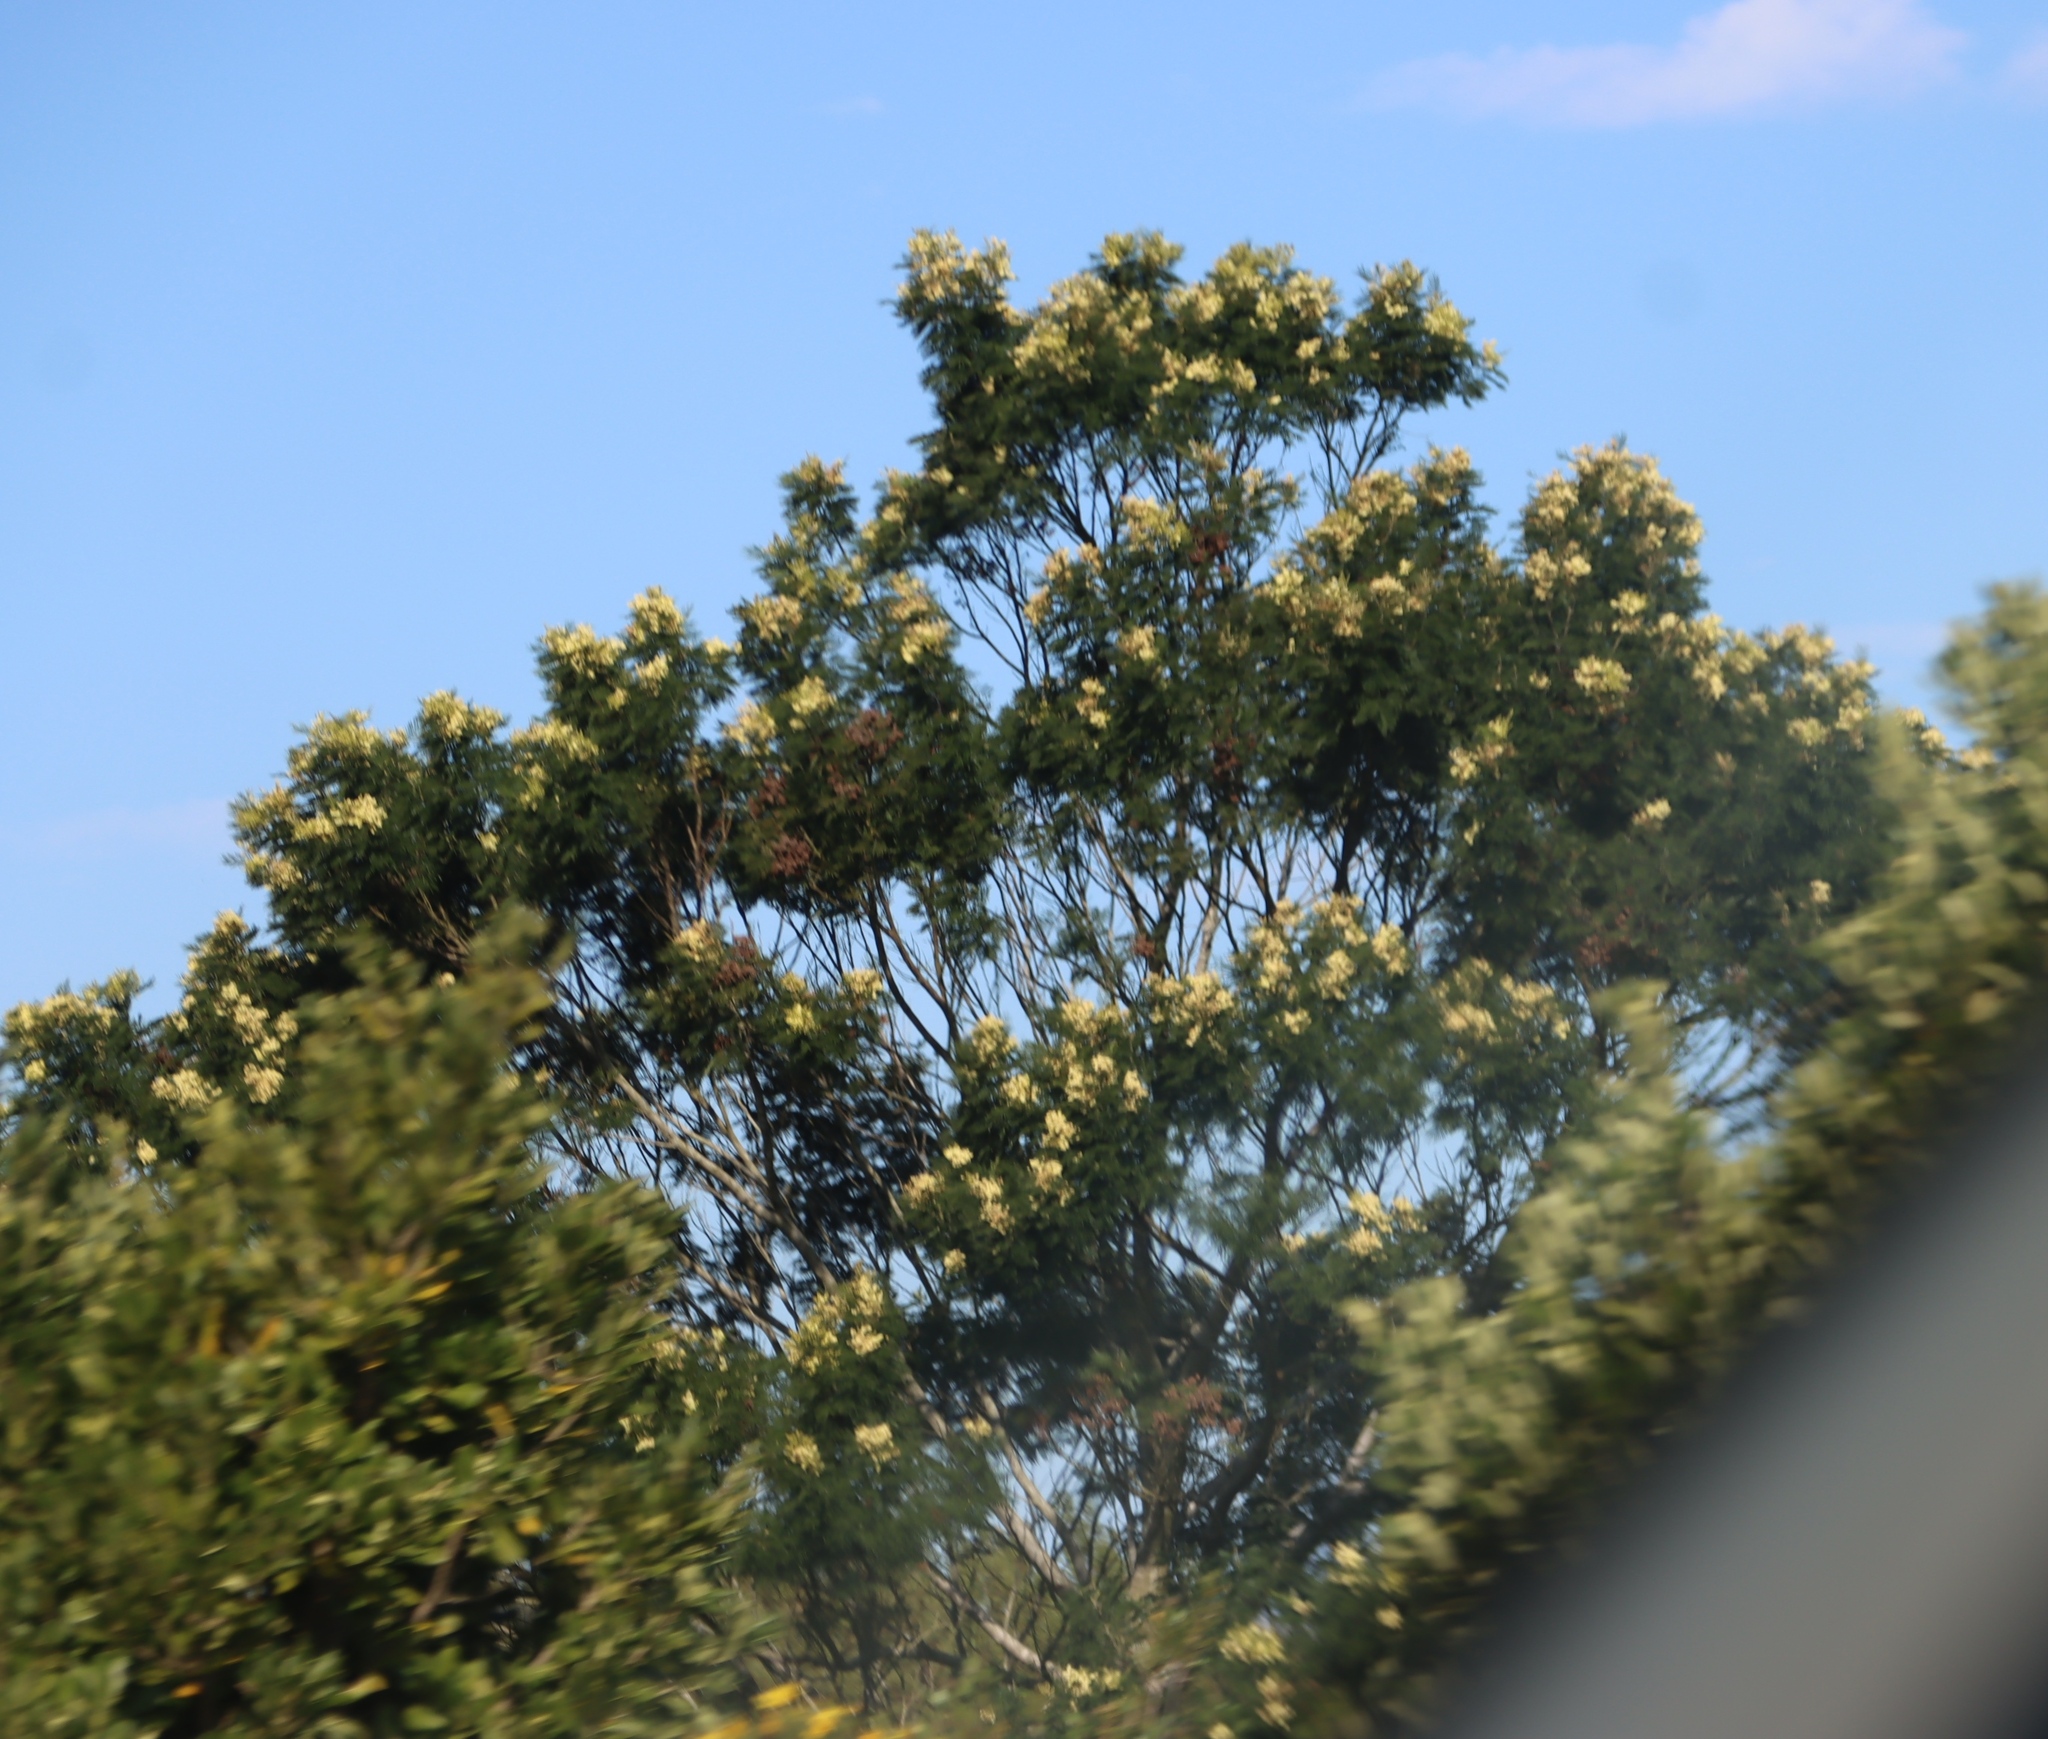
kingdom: Plantae
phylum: Tracheophyta
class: Magnoliopsida
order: Fabales
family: Fabaceae
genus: Acacia
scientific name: Acacia mearnsii
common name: Black wattle
